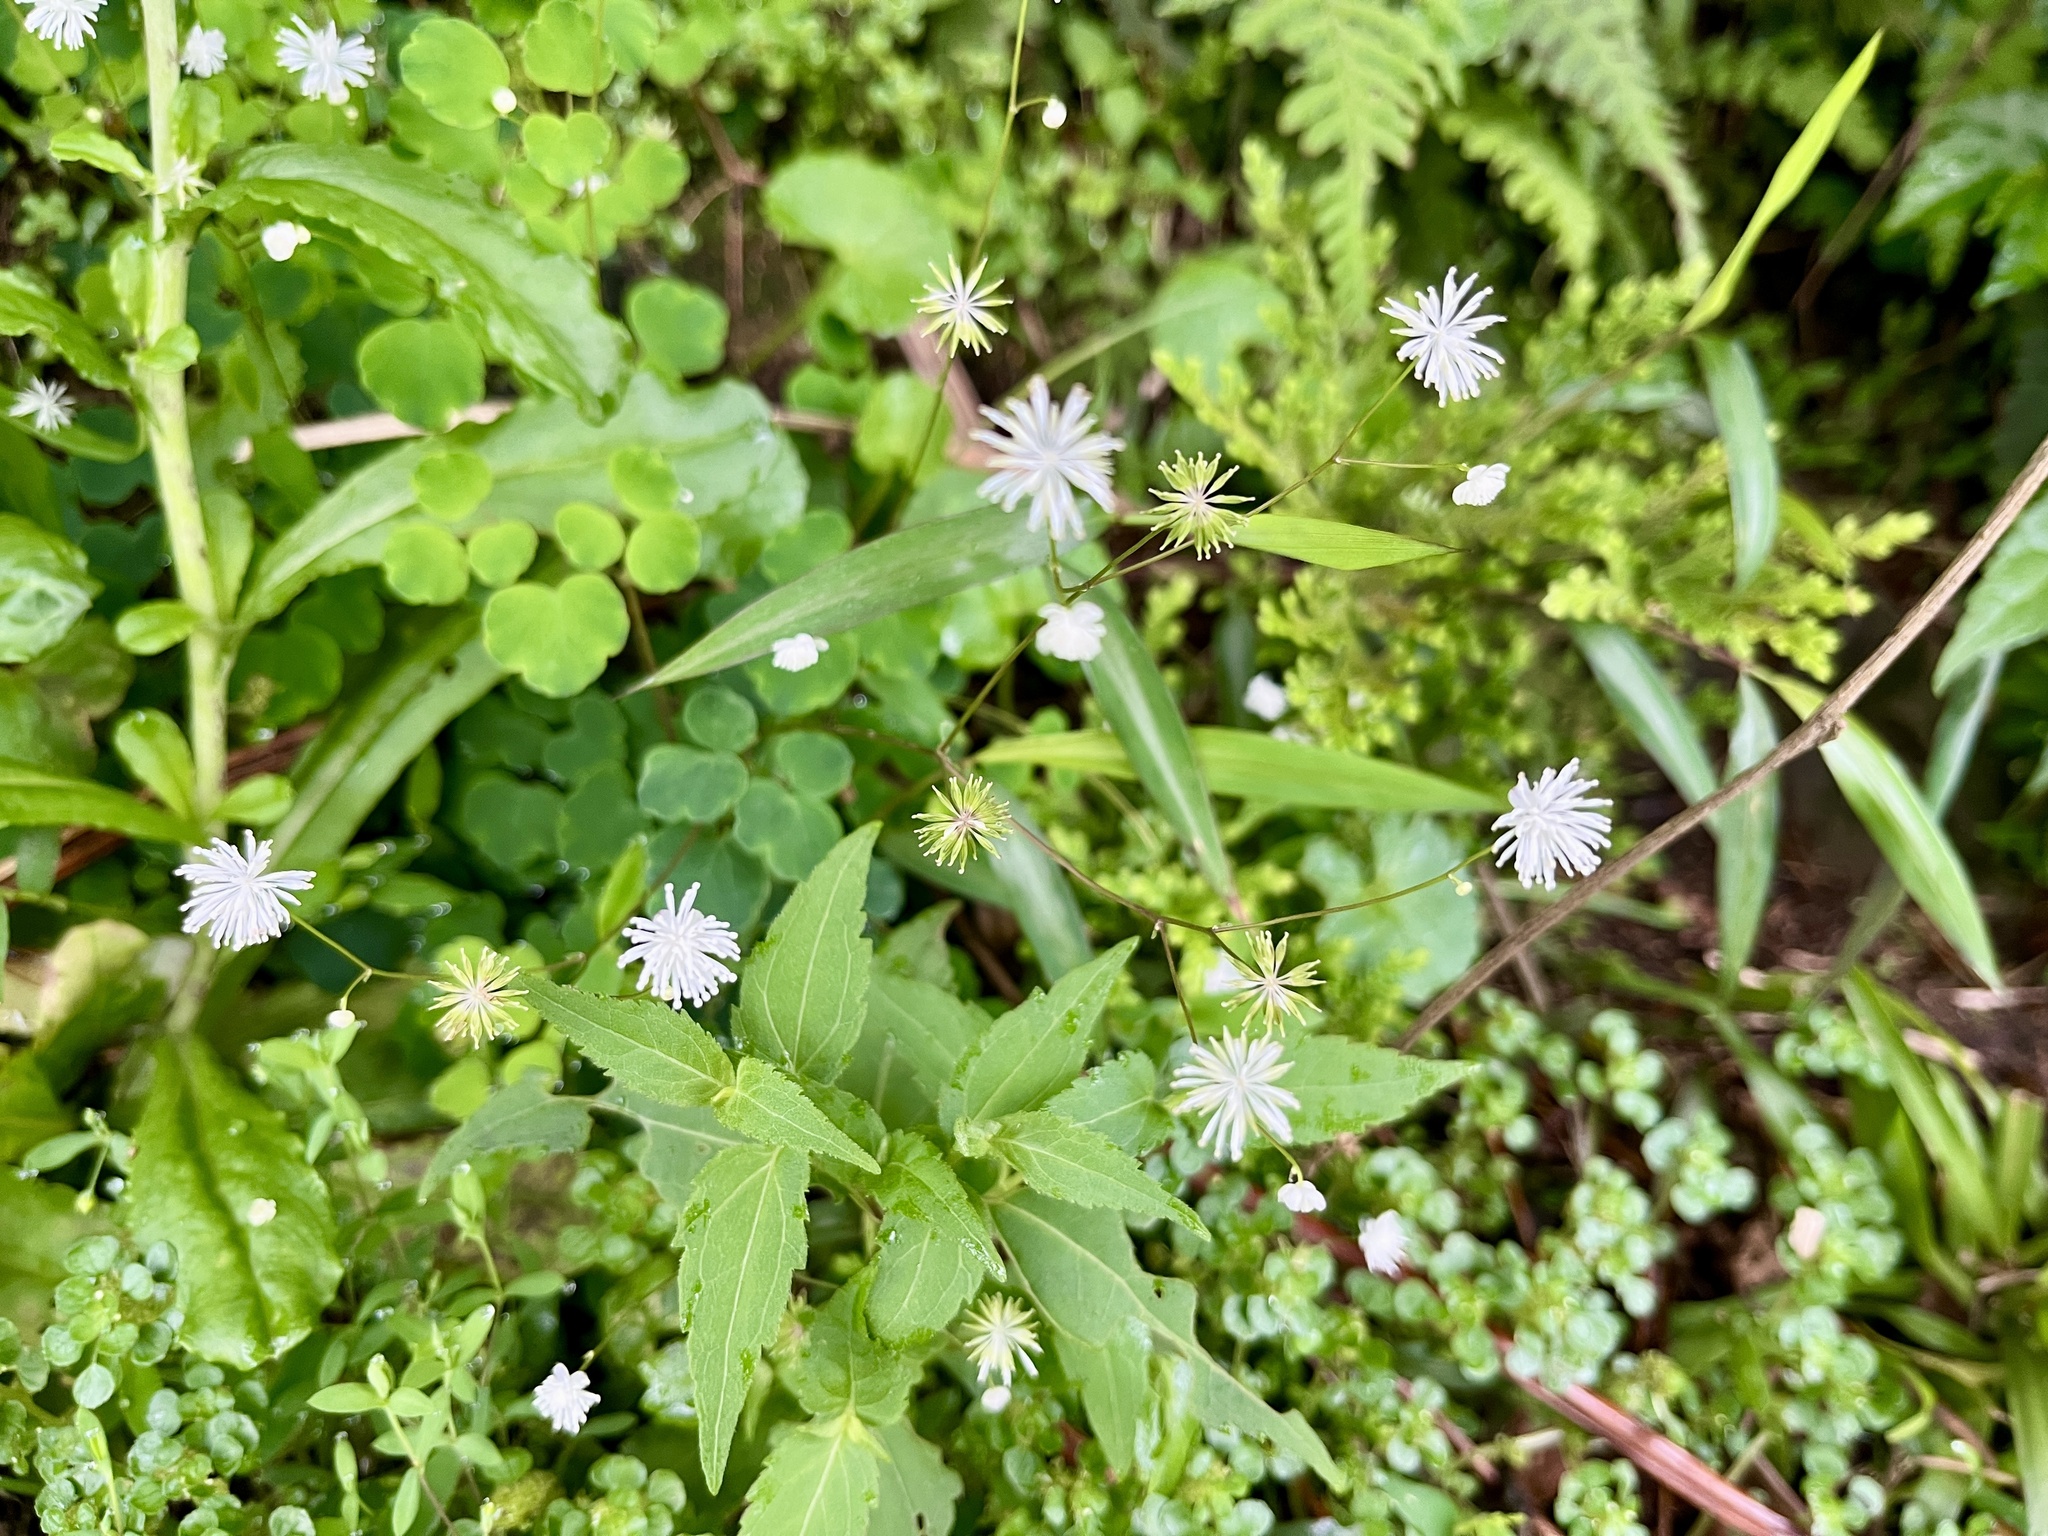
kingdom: Plantae
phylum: Tracheophyta
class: Magnoliopsida
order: Ranunculales
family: Ranunculaceae
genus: Thalictrum
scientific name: Thalictrum urbaini
